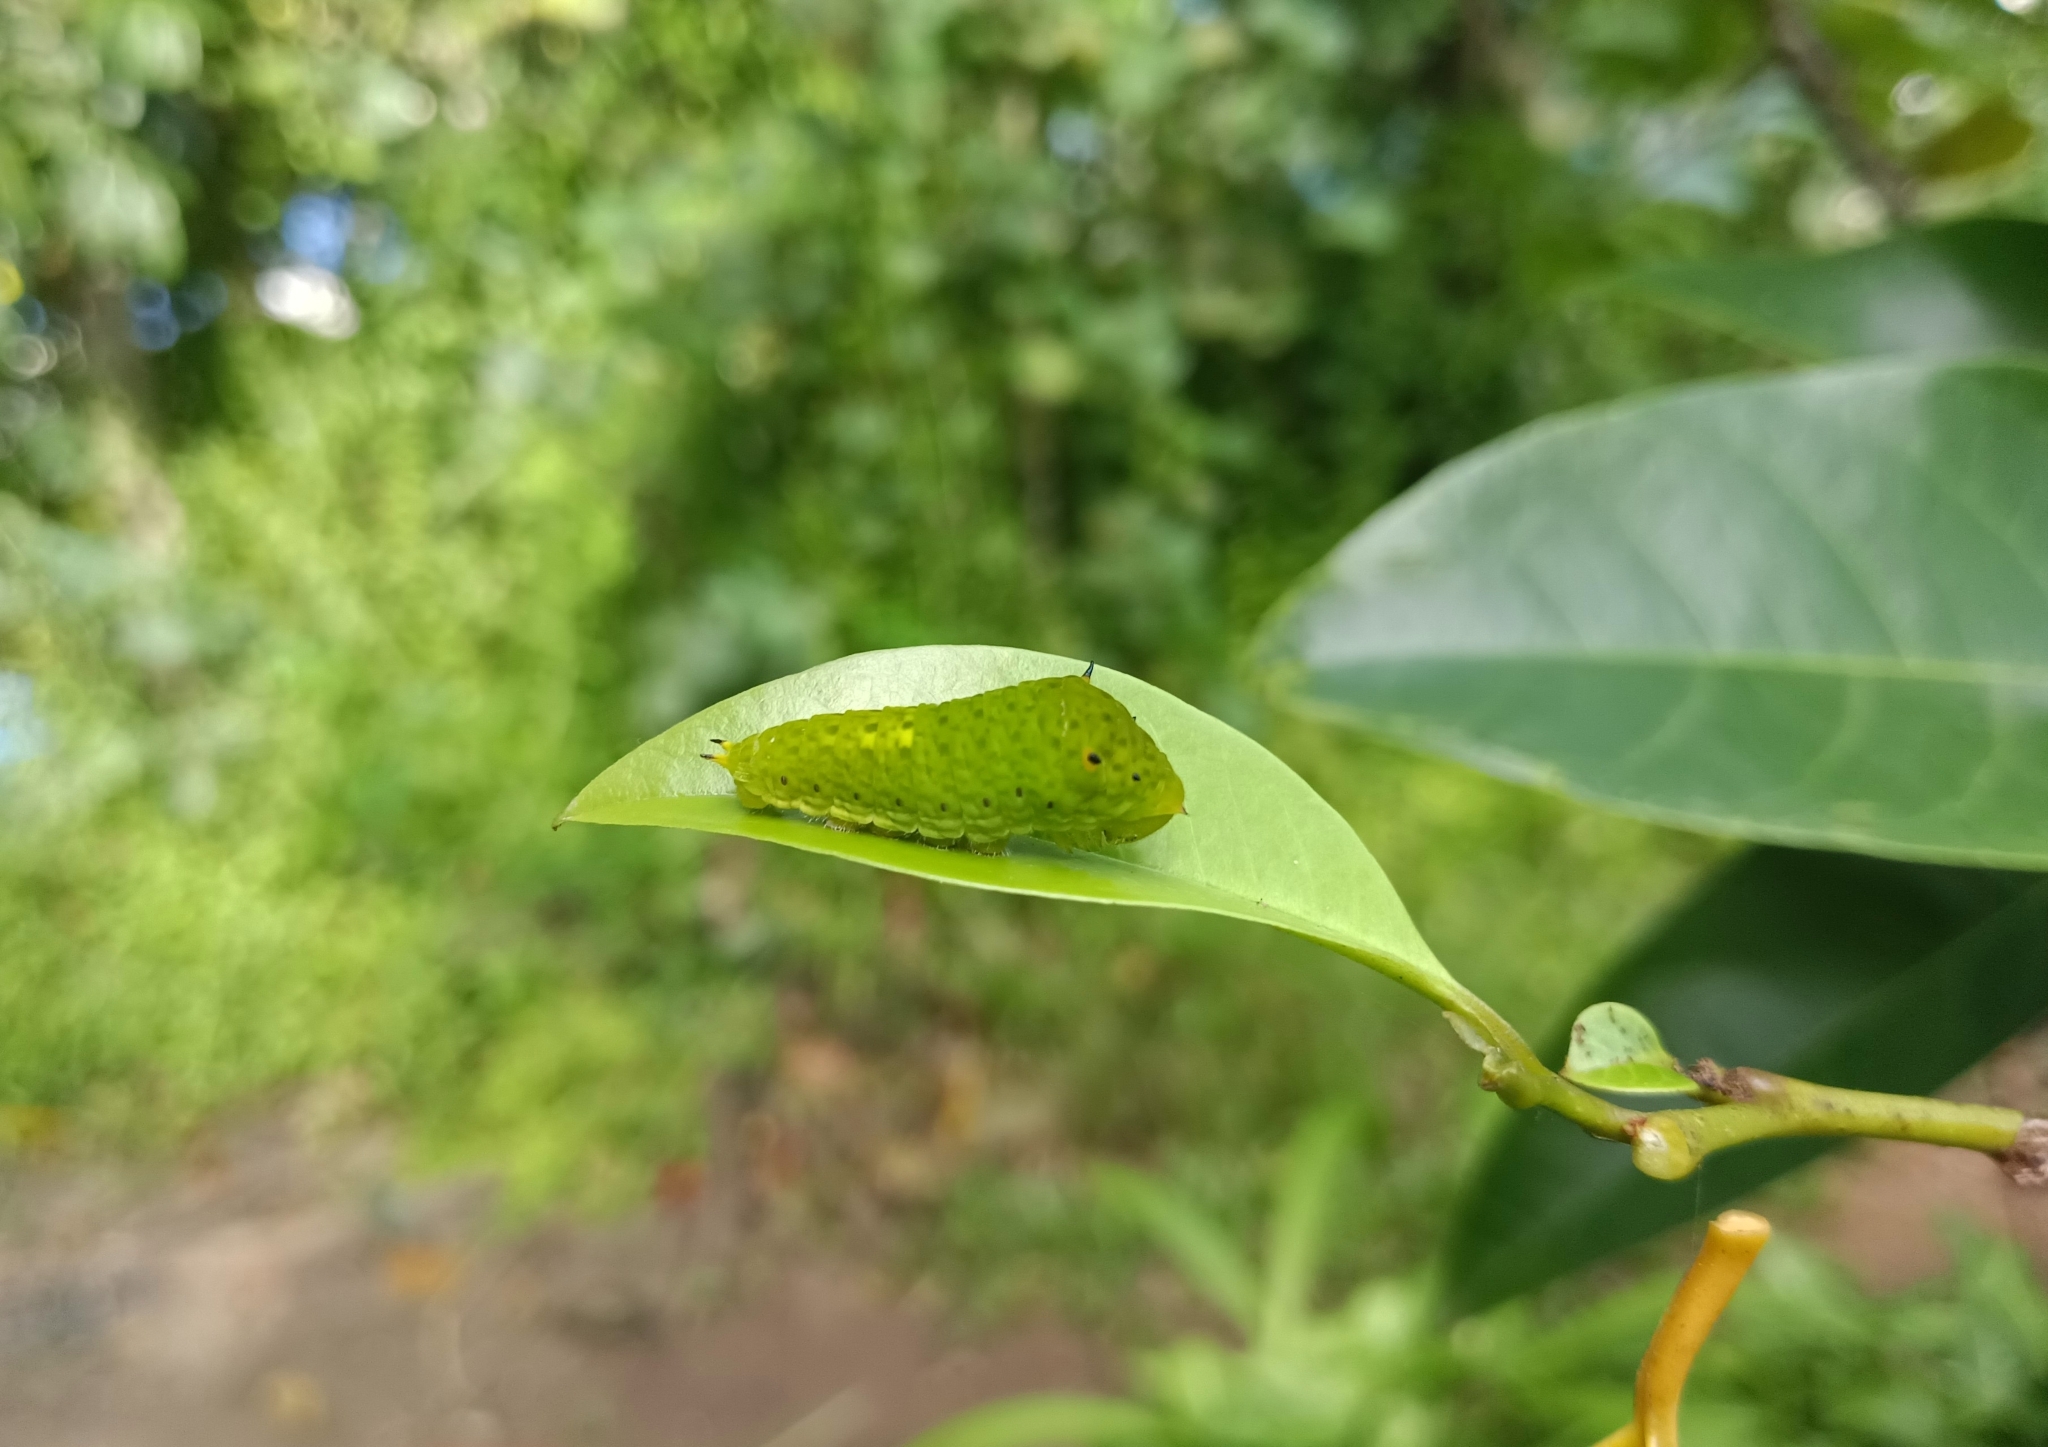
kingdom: Animalia
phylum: Arthropoda
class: Insecta
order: Lepidoptera
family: Papilionidae
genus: Graphium
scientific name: Graphium agamemnon
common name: Tailed jay
